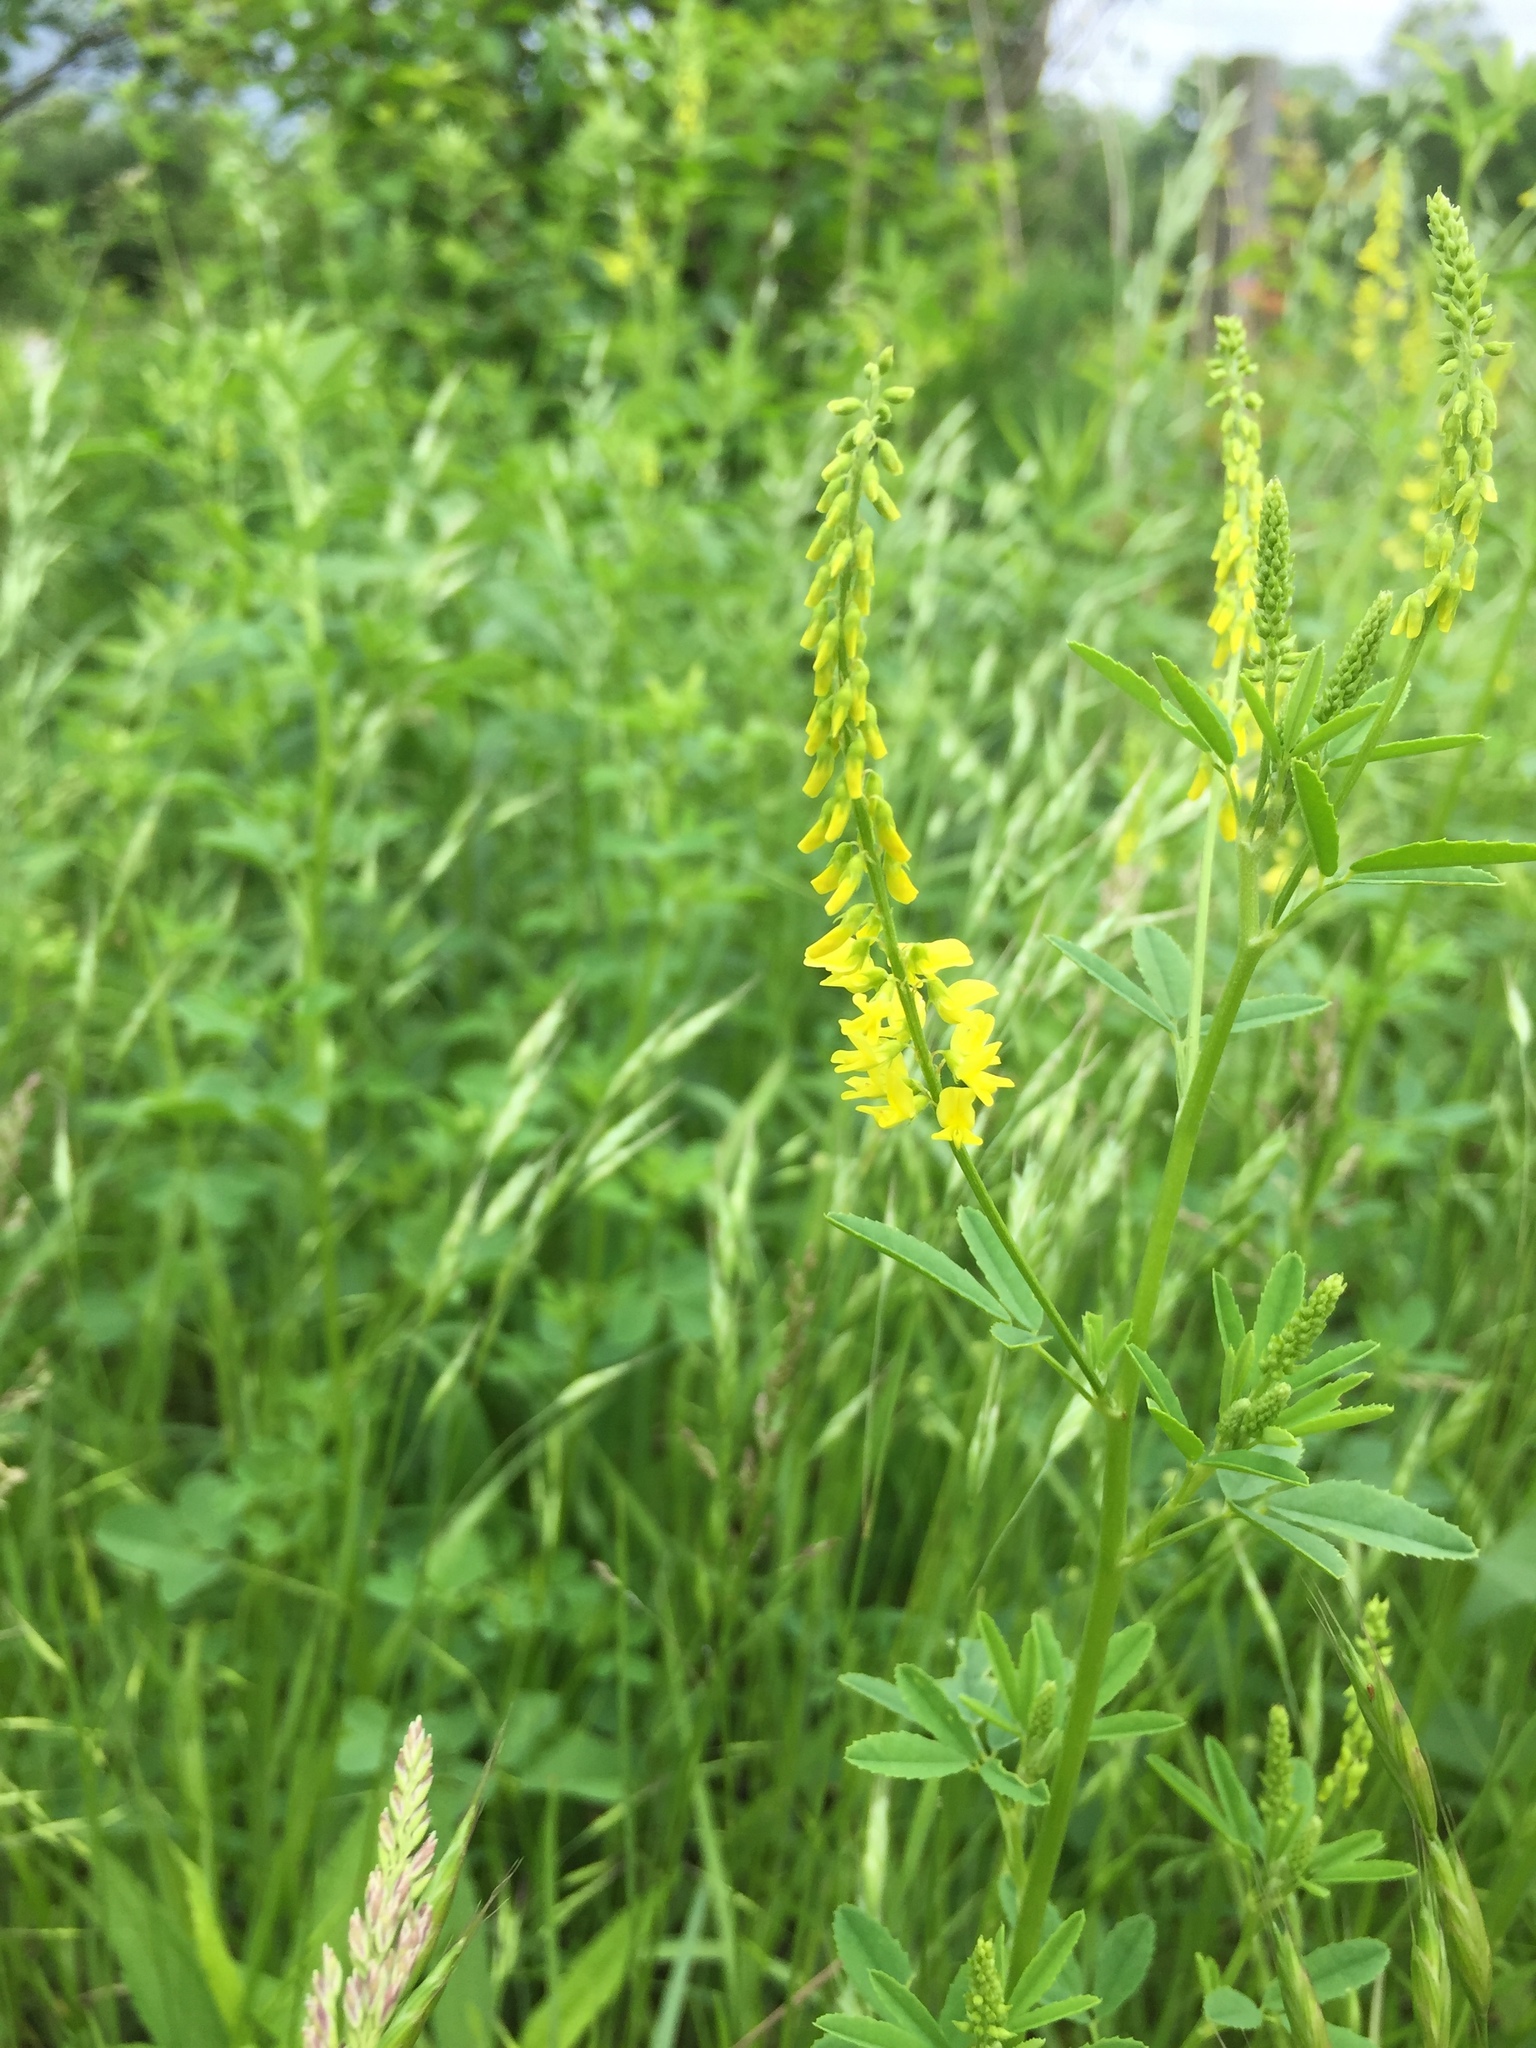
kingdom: Plantae
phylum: Tracheophyta
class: Magnoliopsida
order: Fabales
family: Fabaceae
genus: Melilotus
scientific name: Melilotus officinalis
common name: Sweetclover
